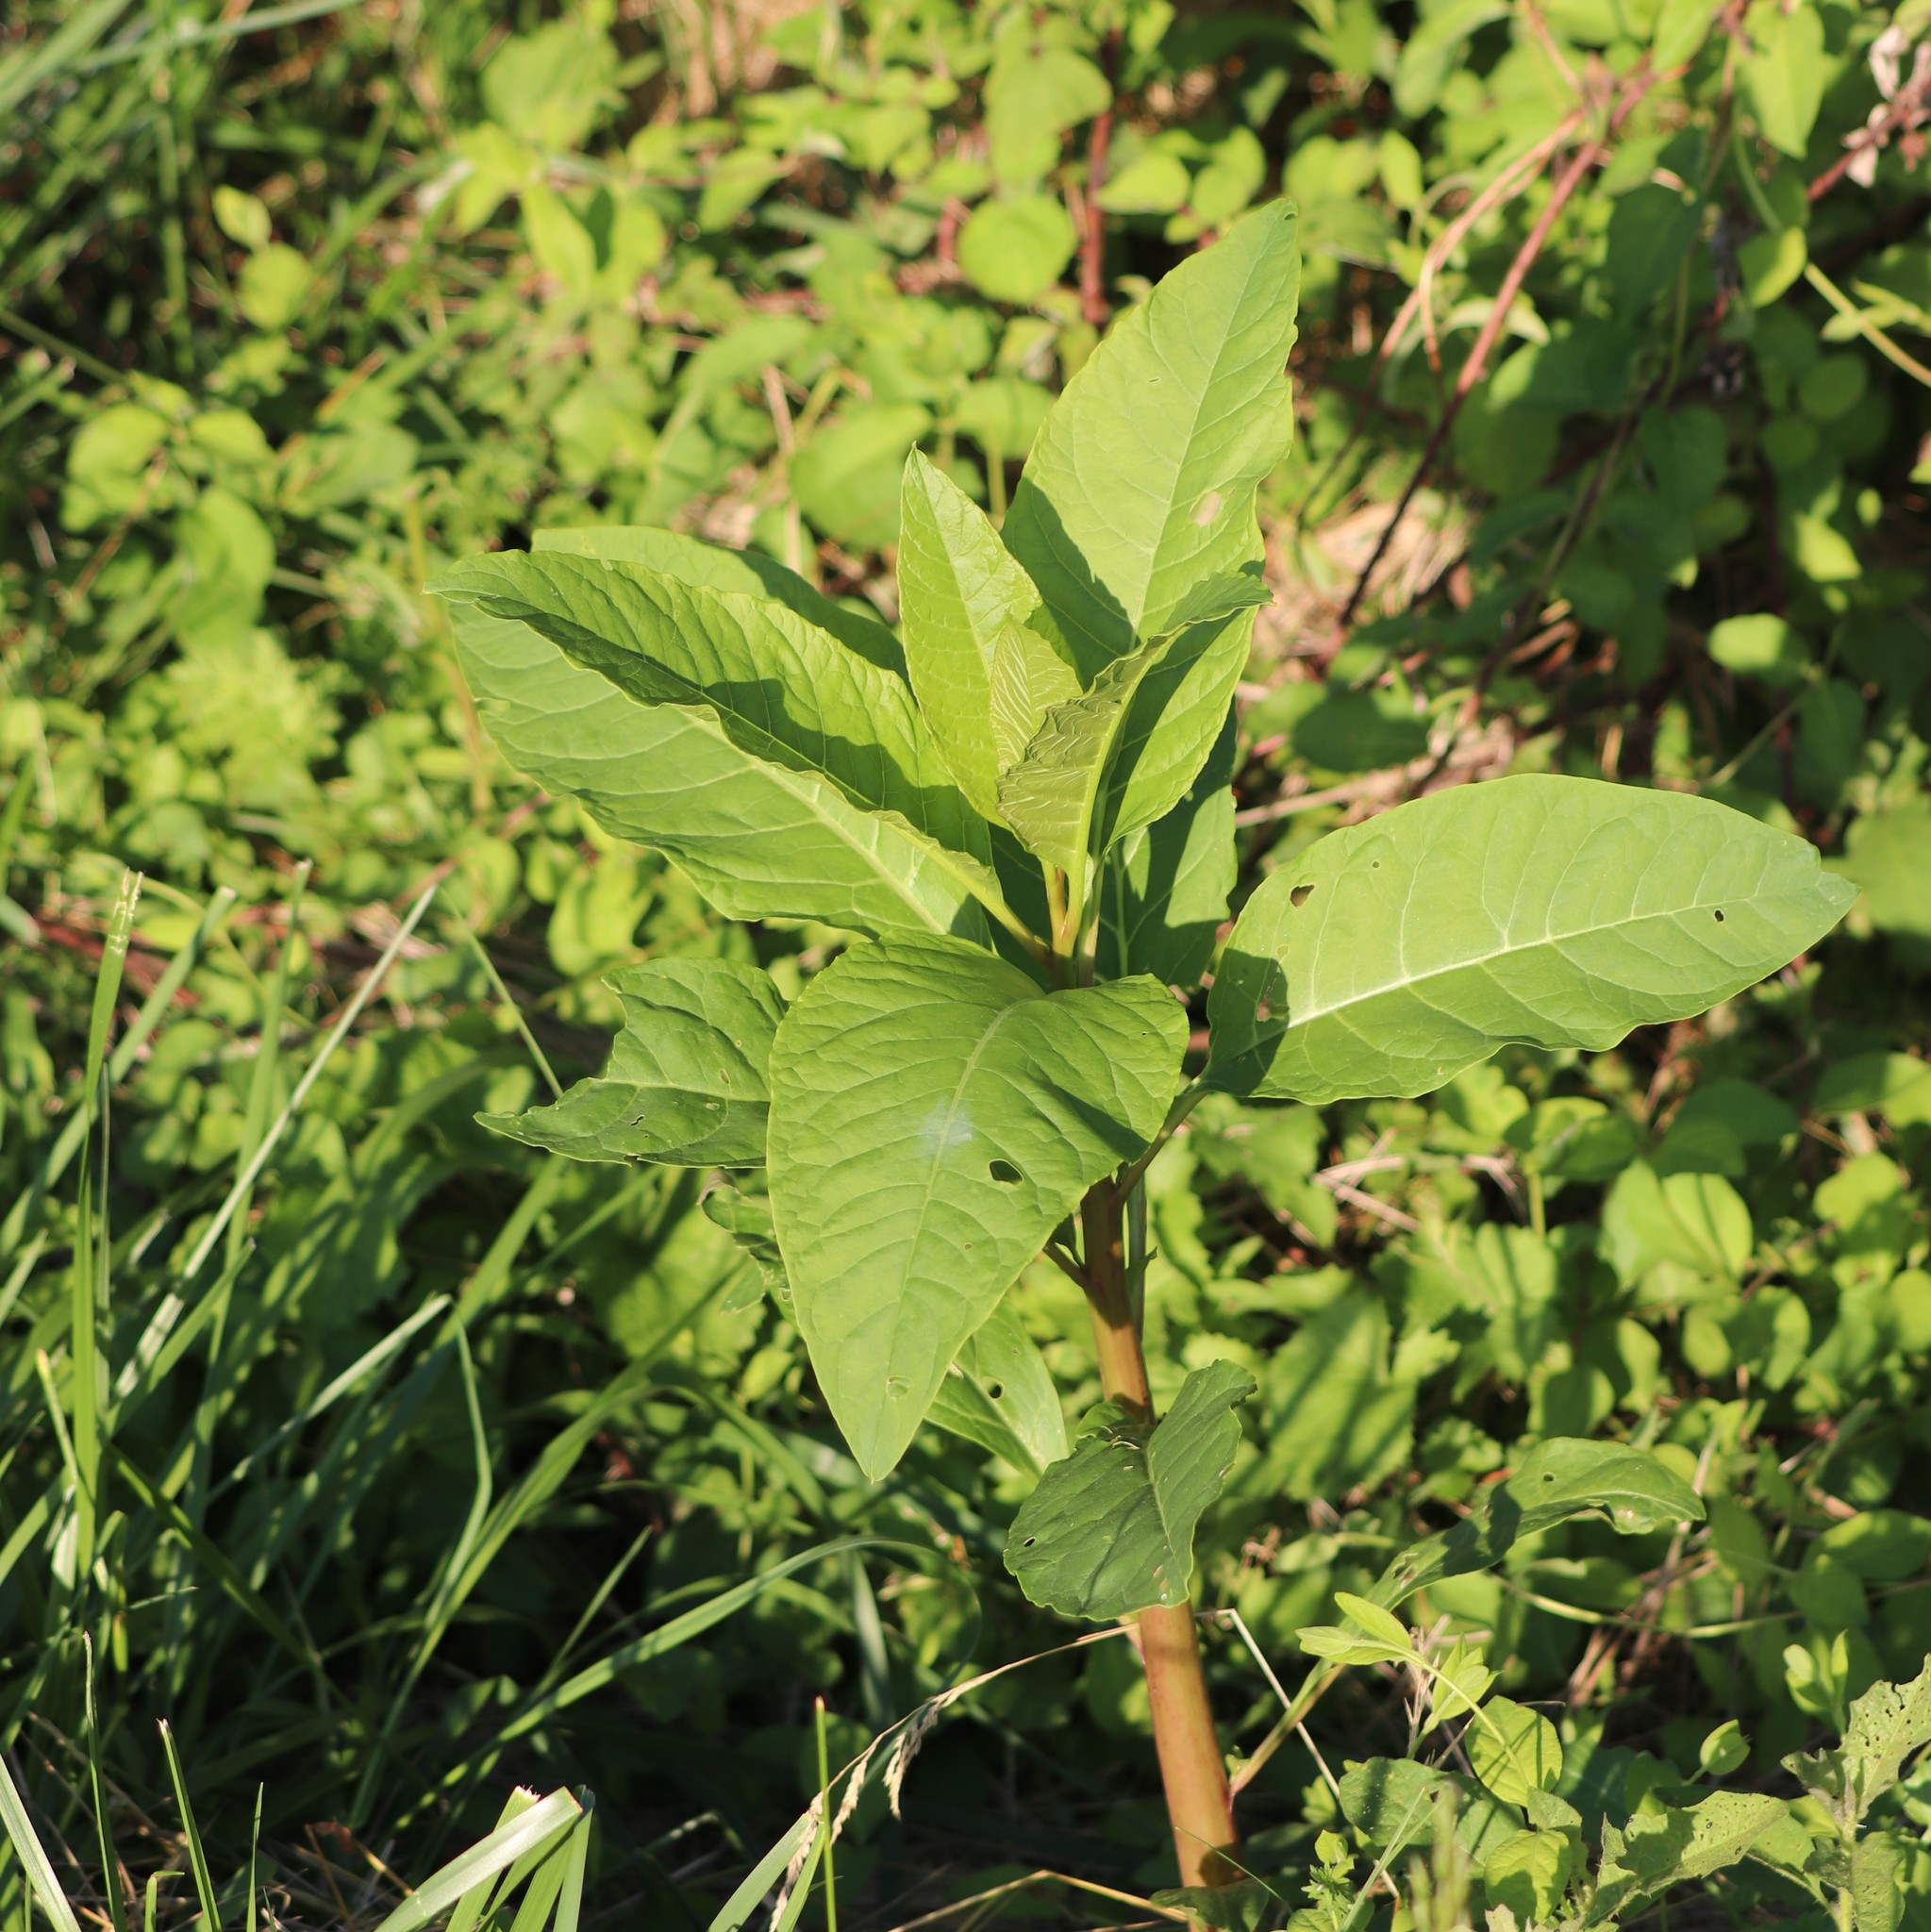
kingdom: Plantae
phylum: Tracheophyta
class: Magnoliopsida
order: Caryophyllales
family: Phytolaccaceae
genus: Phytolacca
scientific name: Phytolacca americana
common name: American pokeweed
